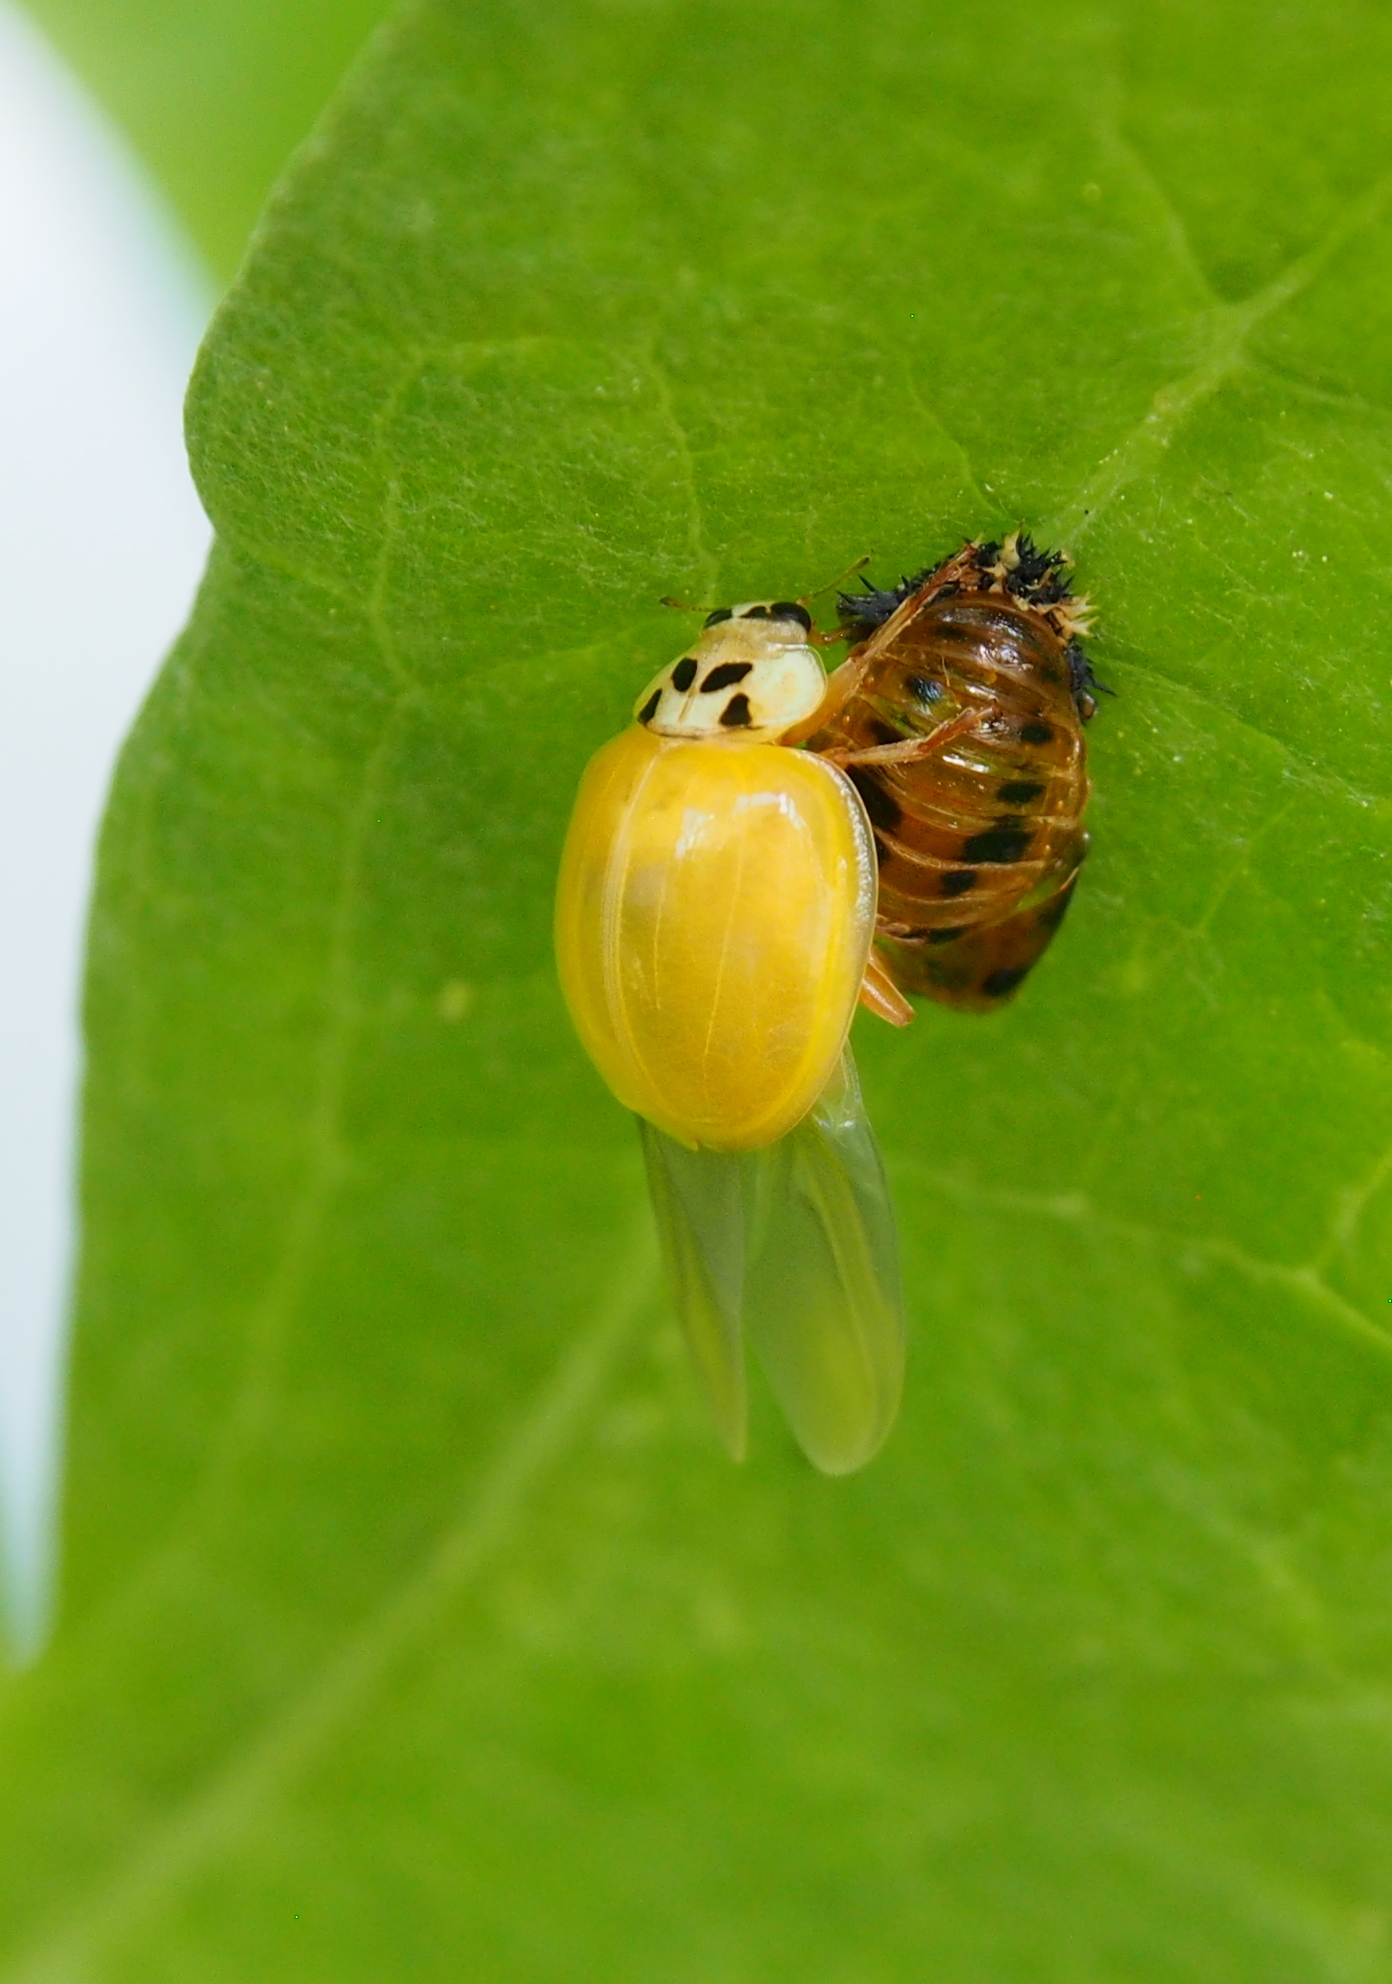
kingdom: Animalia
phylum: Arthropoda
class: Insecta
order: Coleoptera
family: Coccinellidae
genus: Harmonia
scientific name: Harmonia axyridis
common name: Harlequin ladybird
